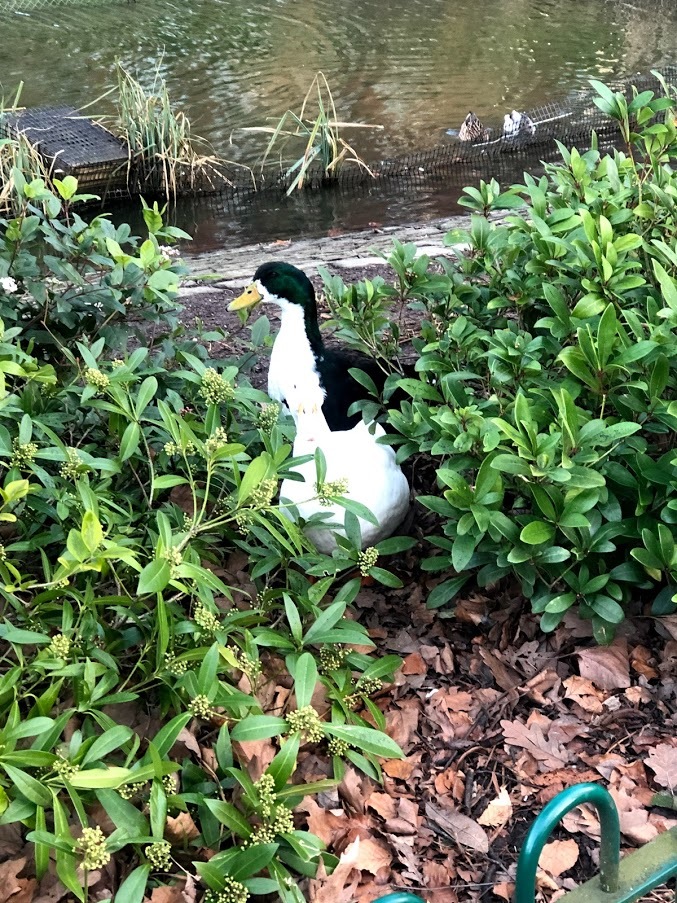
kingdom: Animalia
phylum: Chordata
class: Aves
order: Anseriformes
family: Anatidae
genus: Anas
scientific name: Anas platyrhynchos
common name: Mallard
